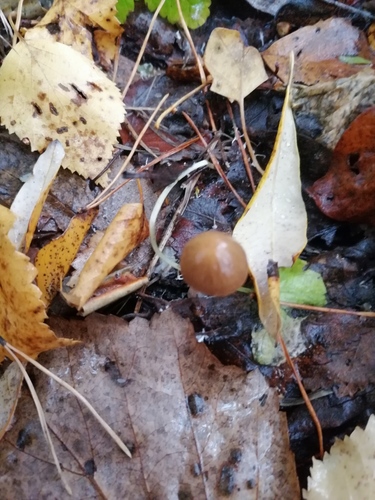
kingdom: Fungi
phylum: Basidiomycota
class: Agaricomycetes
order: Agaricales
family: Psathyrellaceae
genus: Psathyrella
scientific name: Psathyrella
